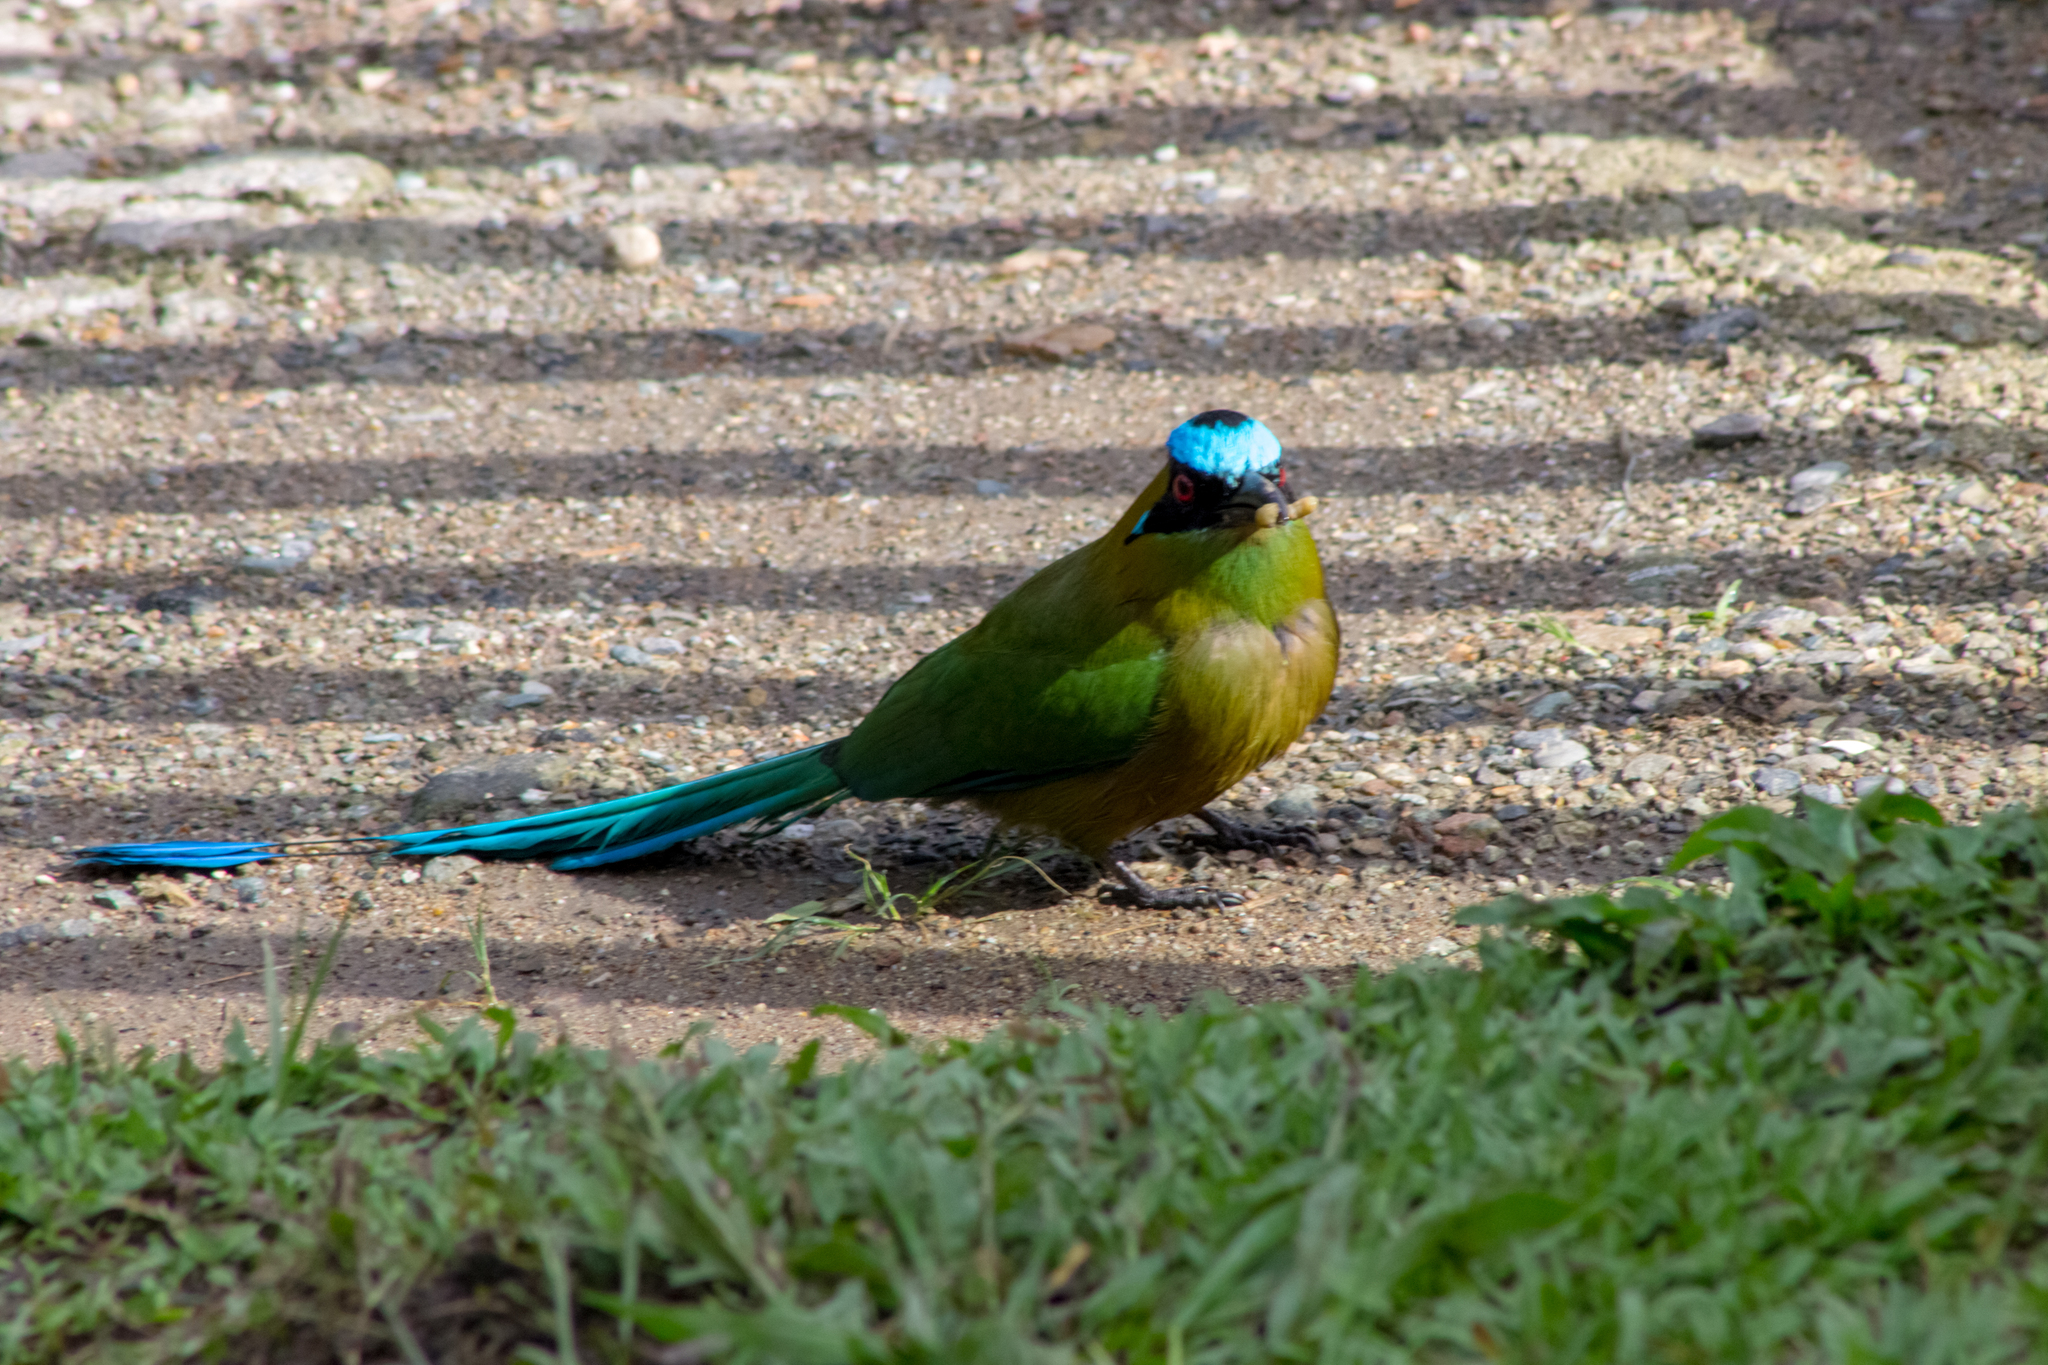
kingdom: Animalia
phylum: Chordata
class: Aves
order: Coraciiformes
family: Momotidae
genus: Momotus
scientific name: Momotus aequatorialis
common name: Andean motmot
